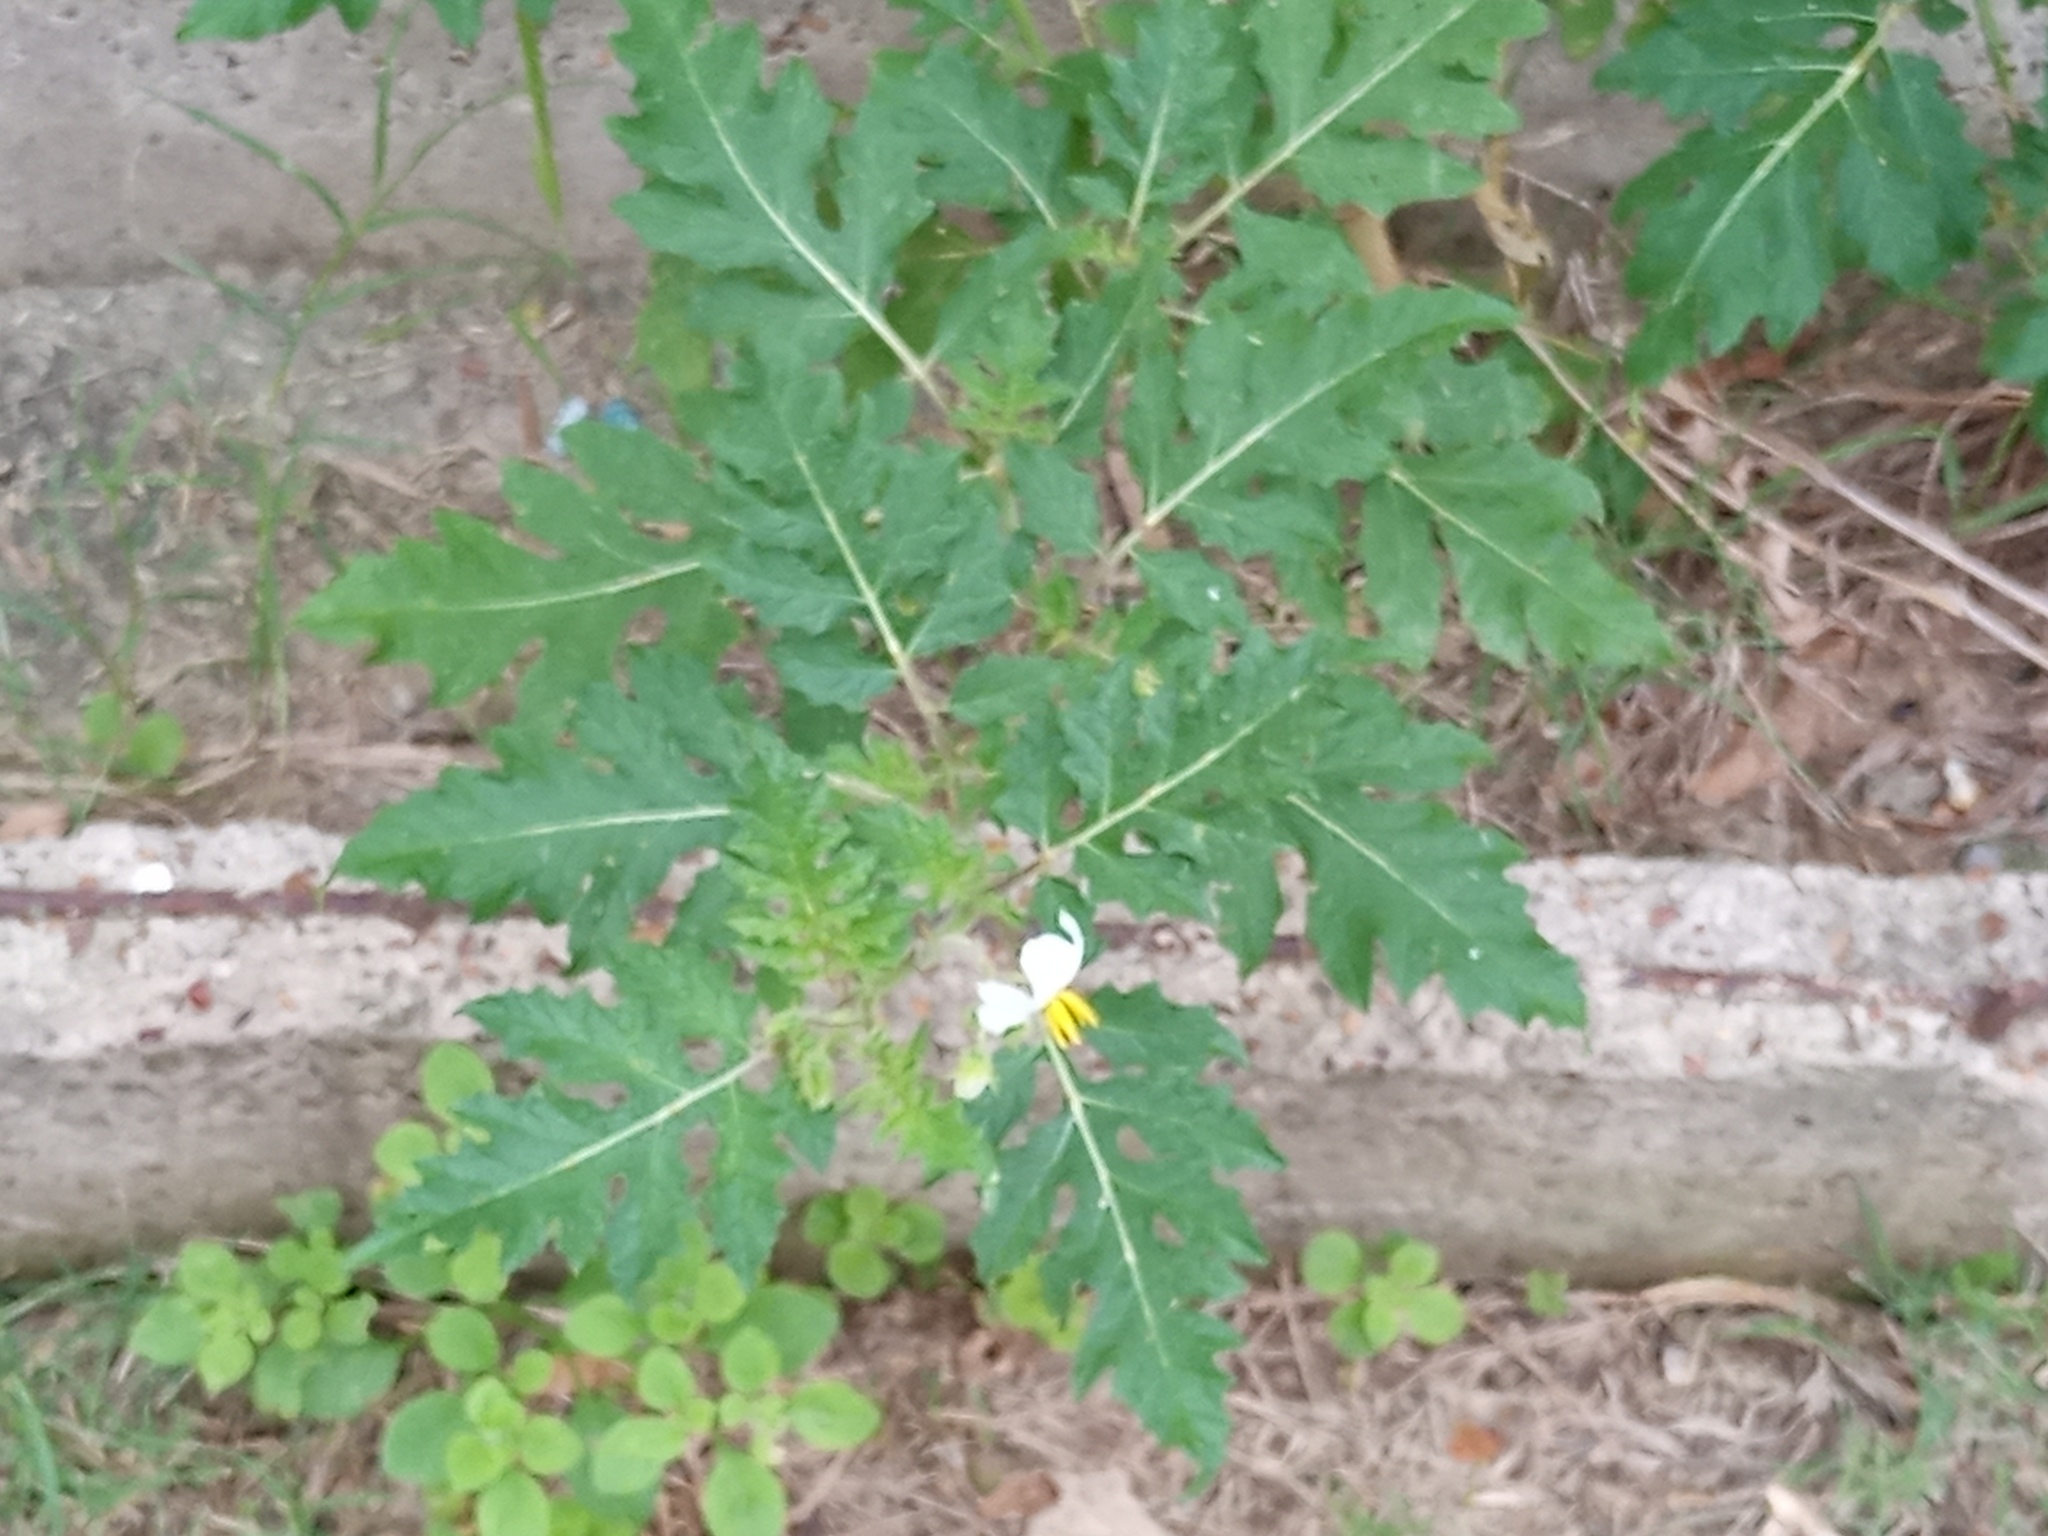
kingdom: Plantae
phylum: Tracheophyta
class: Magnoliopsida
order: Solanales
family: Solanaceae
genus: Solanum
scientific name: Solanum sisymbriifolium
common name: Red buffalo-bur
